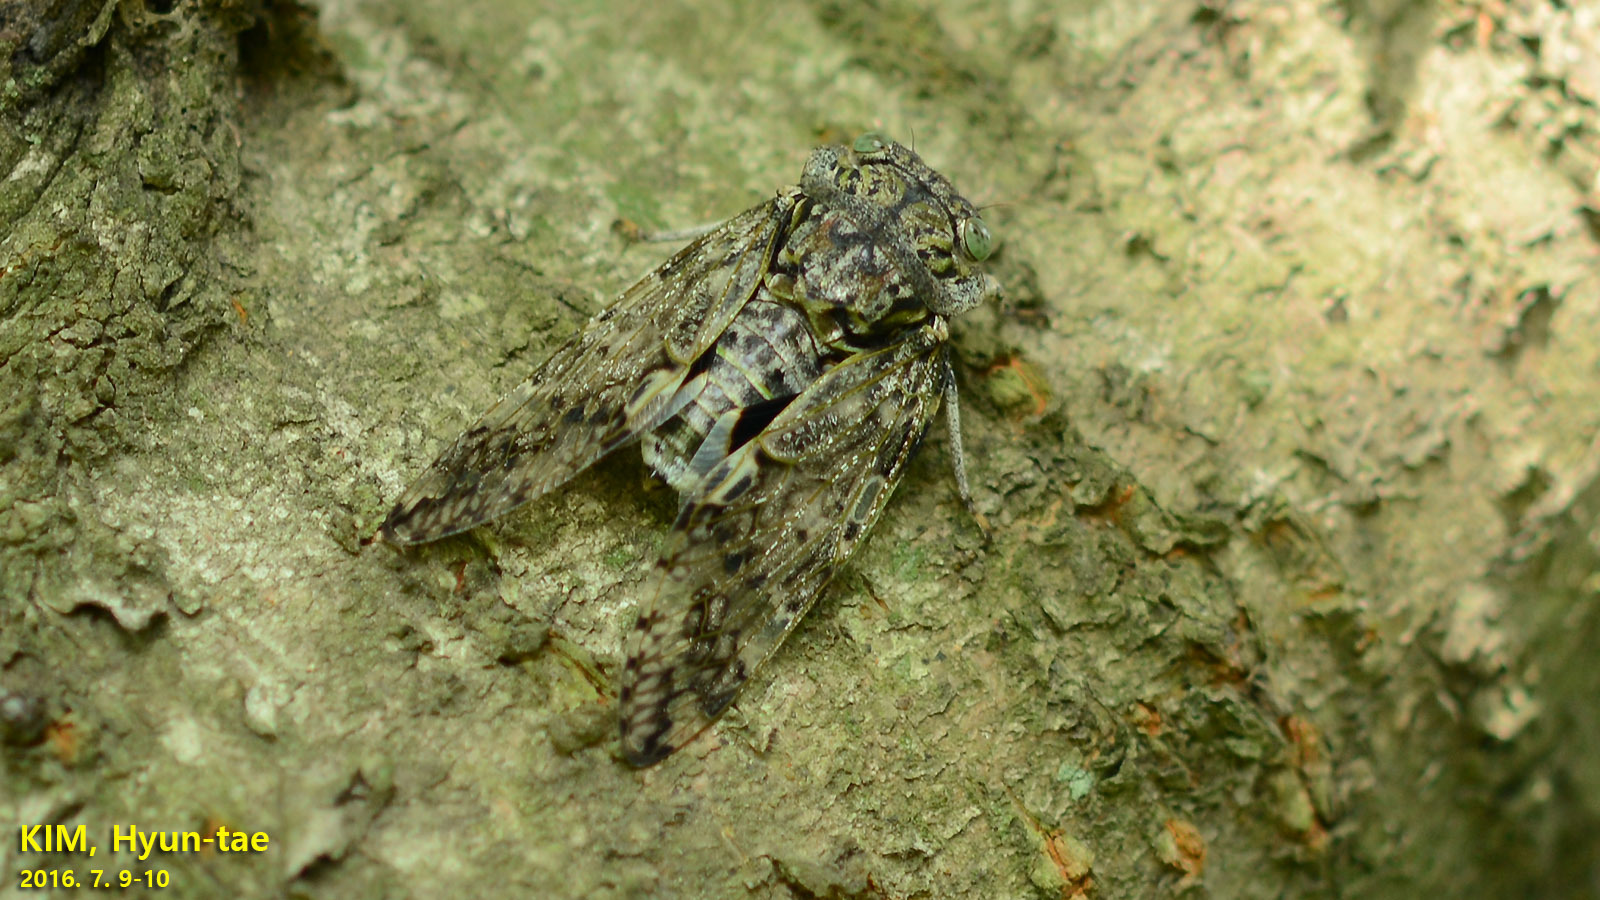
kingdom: Animalia
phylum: Arthropoda
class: Insecta
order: Hemiptera
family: Cicadidae
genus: Platypleura
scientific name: Platypleura kaempferi
